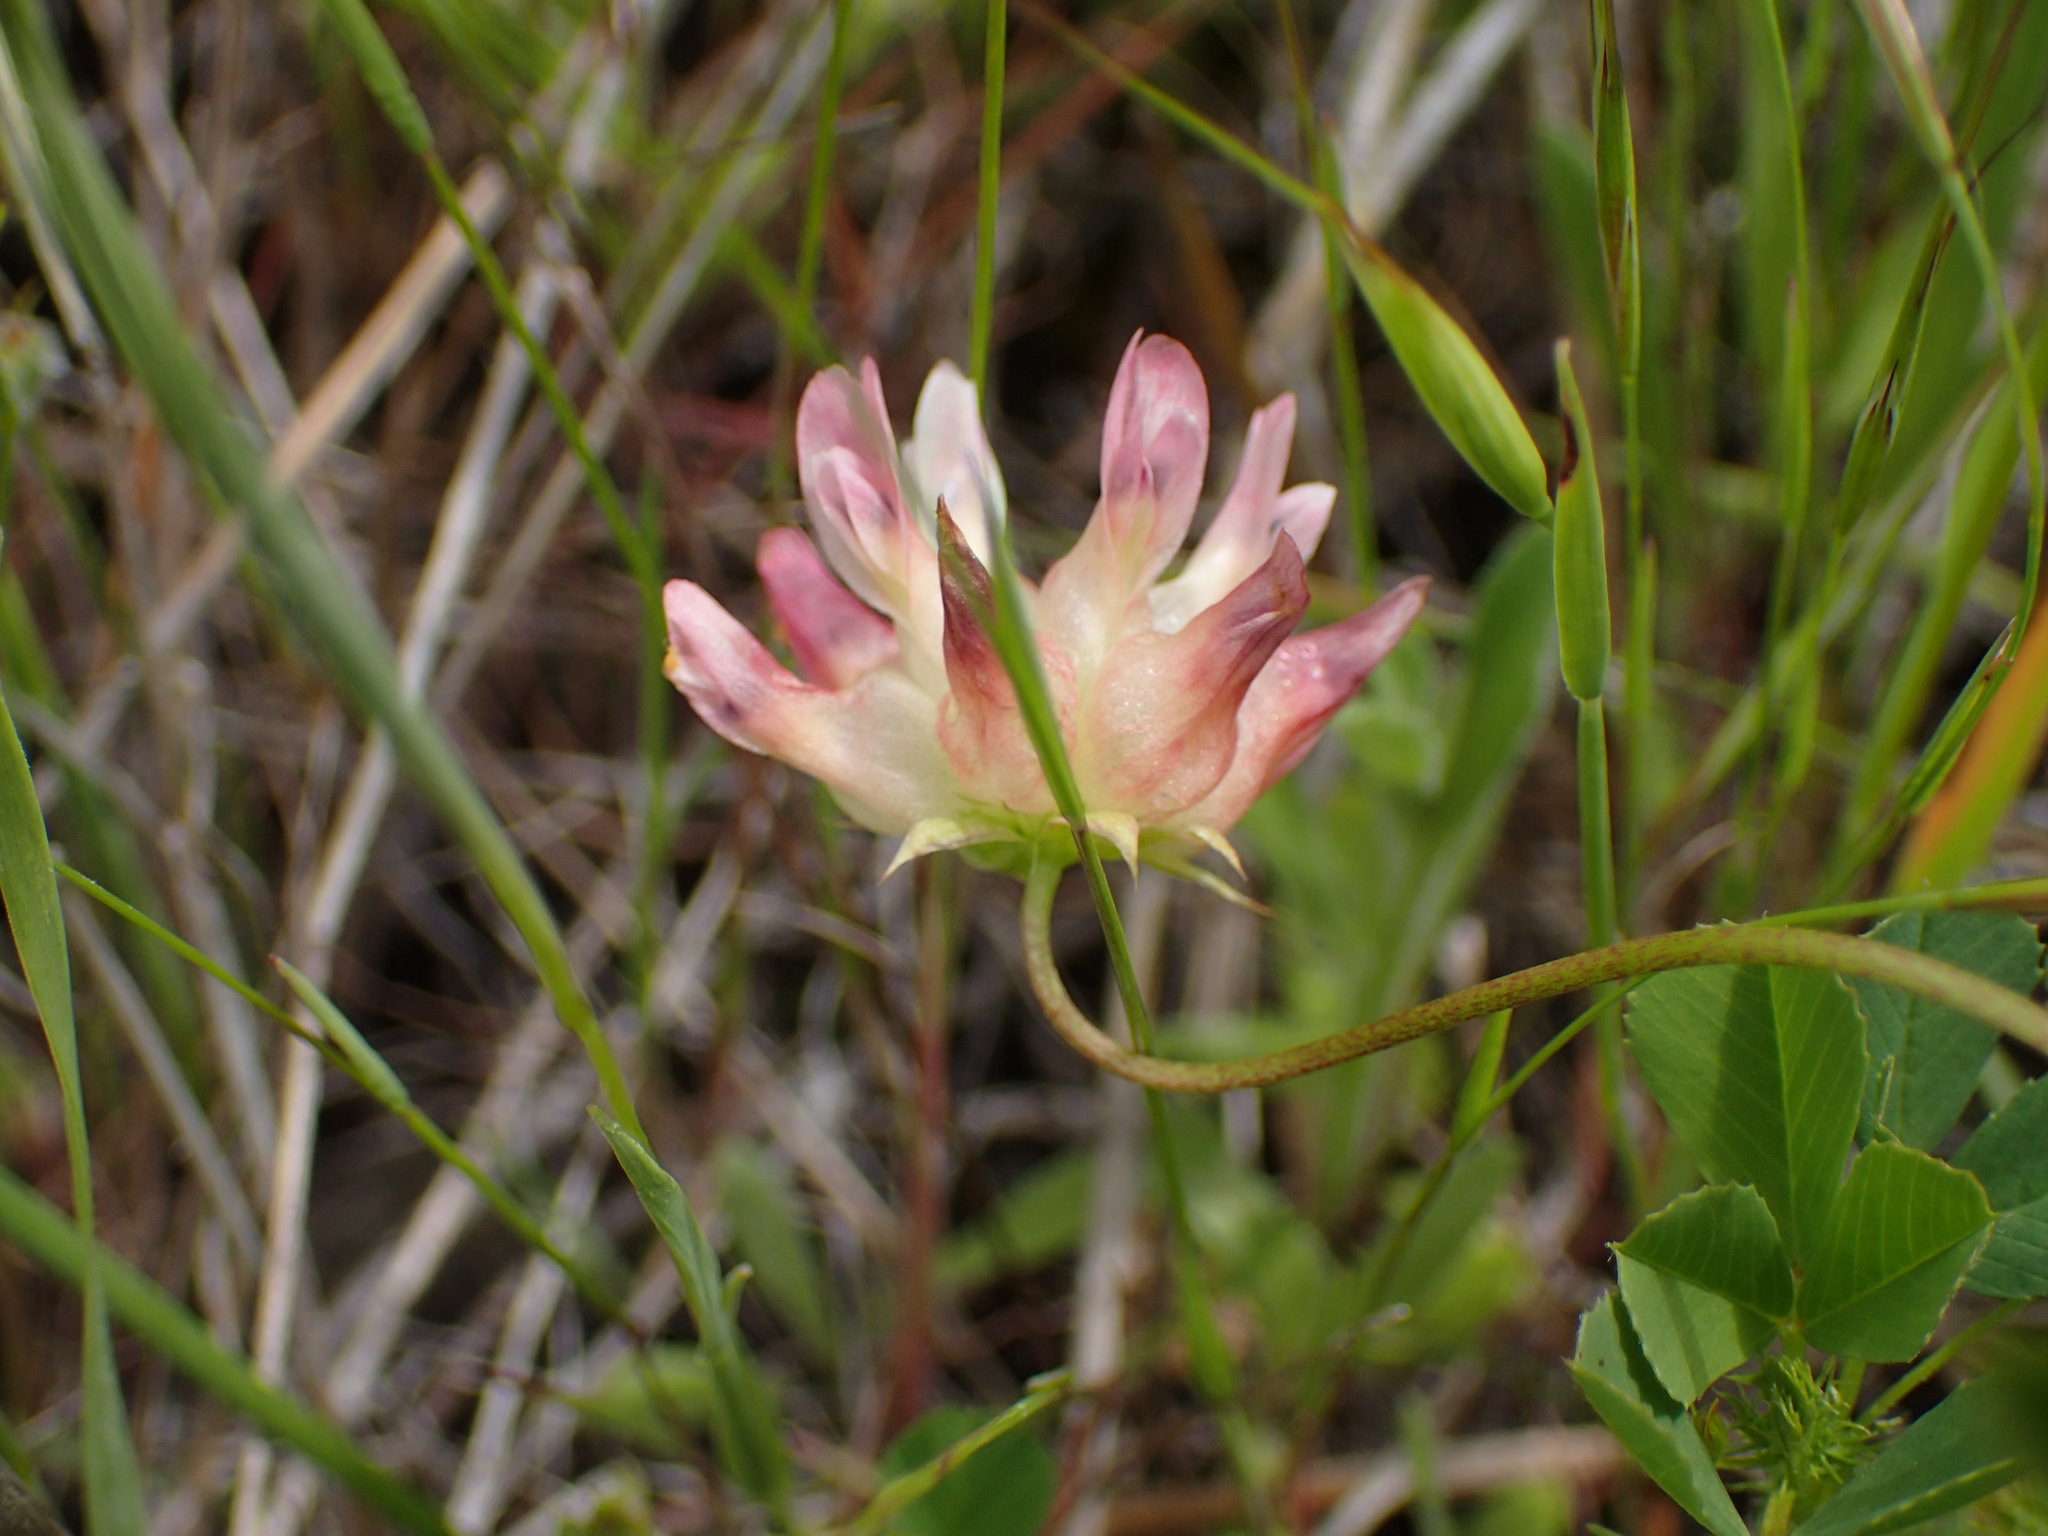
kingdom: Plantae
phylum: Tracheophyta
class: Magnoliopsida
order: Fabales
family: Fabaceae
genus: Trifolium
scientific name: Trifolium fucatum
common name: Puff clover
